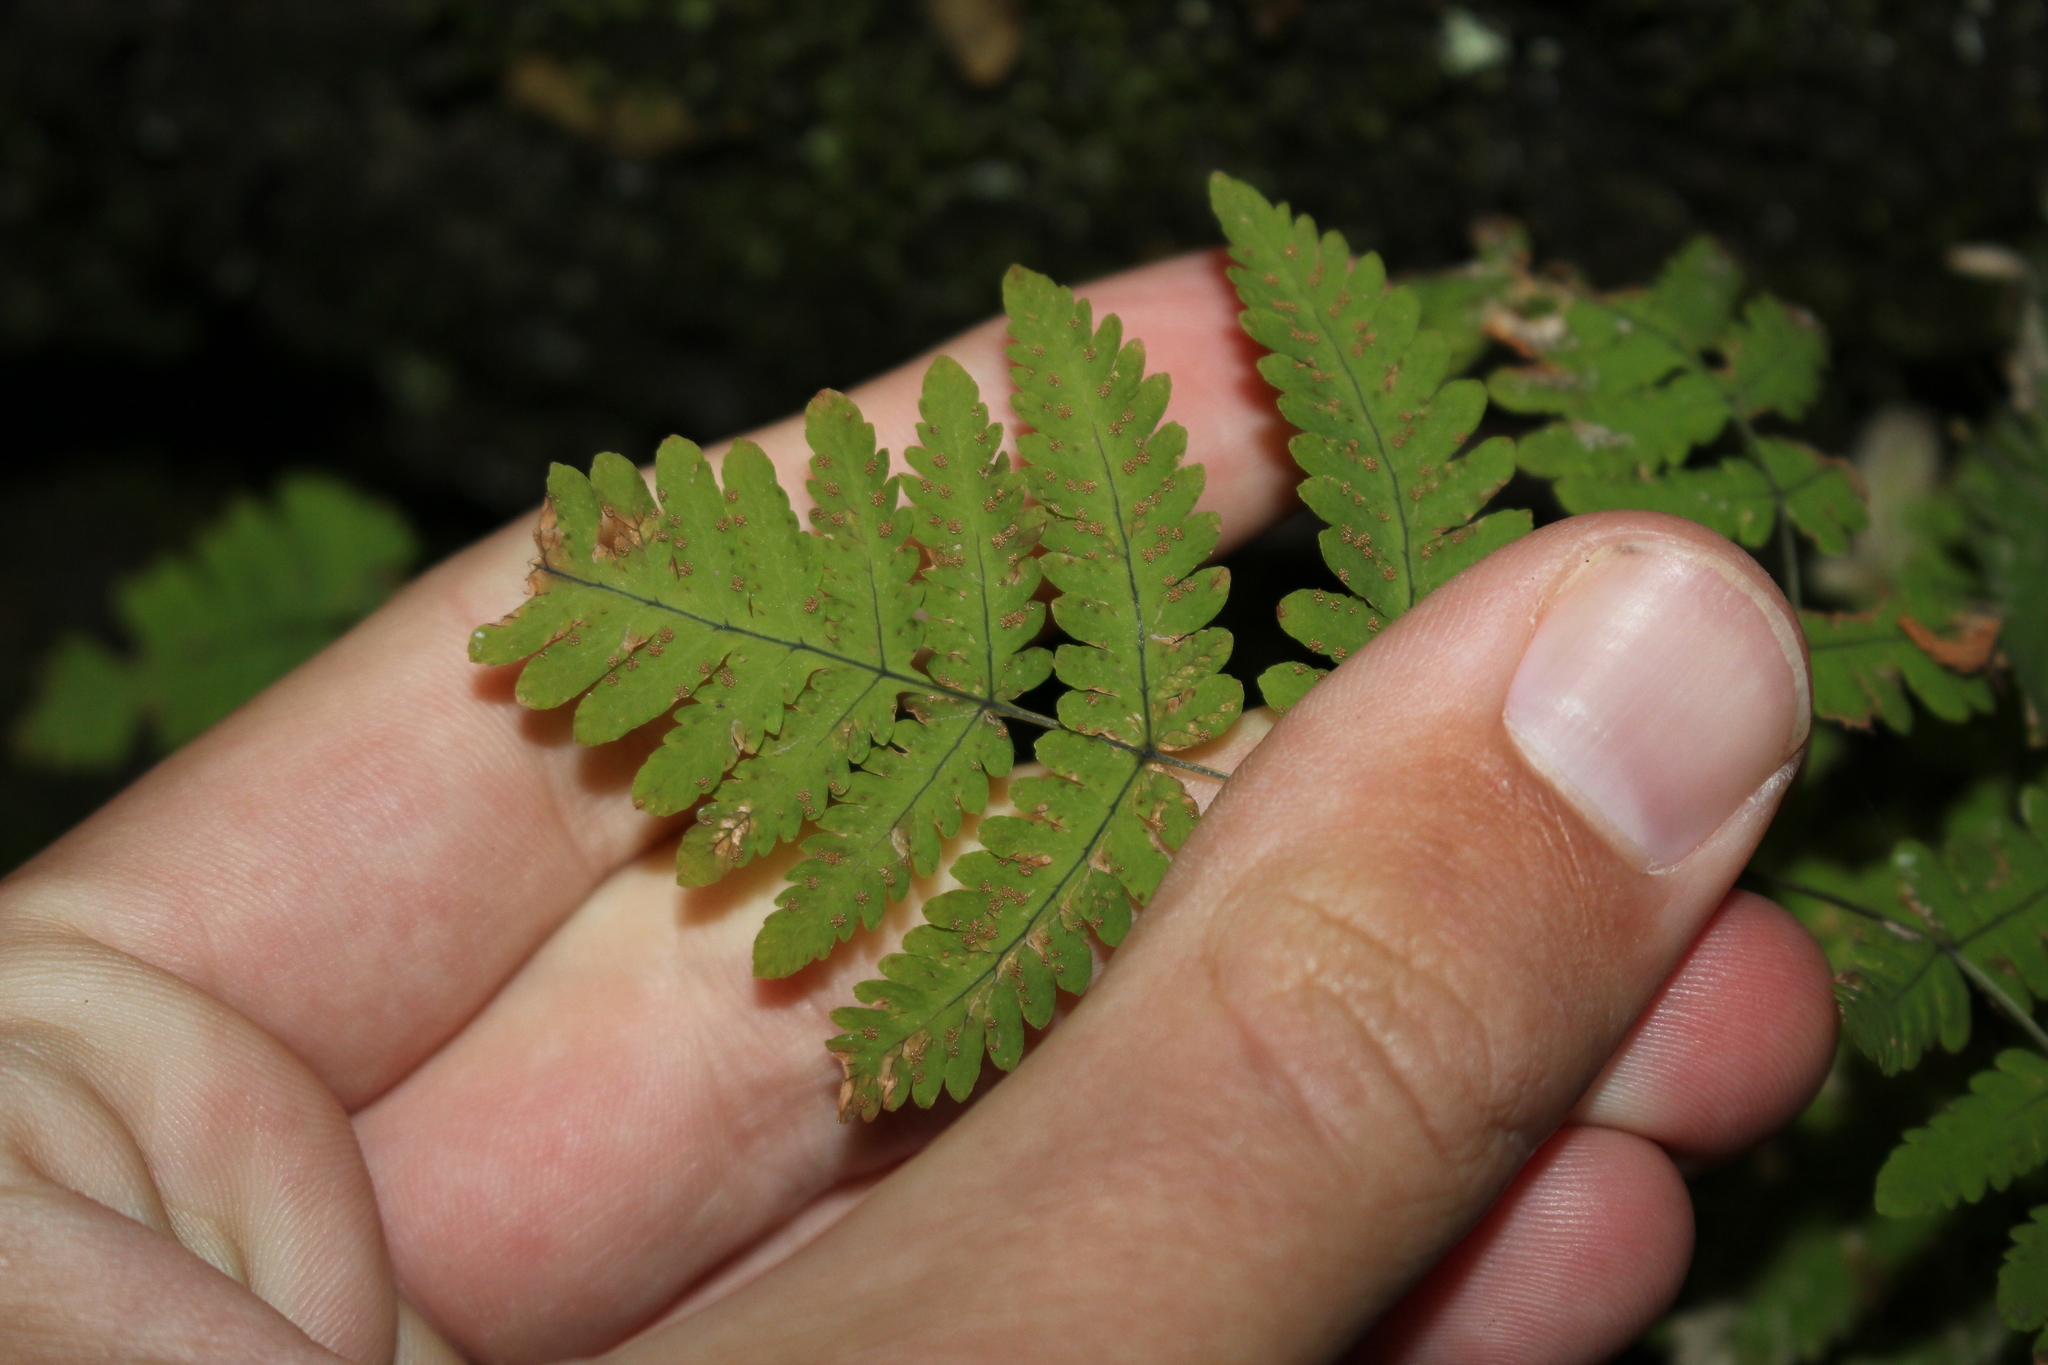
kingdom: Plantae
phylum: Tracheophyta
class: Polypodiopsida
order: Polypodiales
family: Cystopteridaceae
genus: Gymnocarpium
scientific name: Gymnocarpium dryopteris
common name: Oak fern
